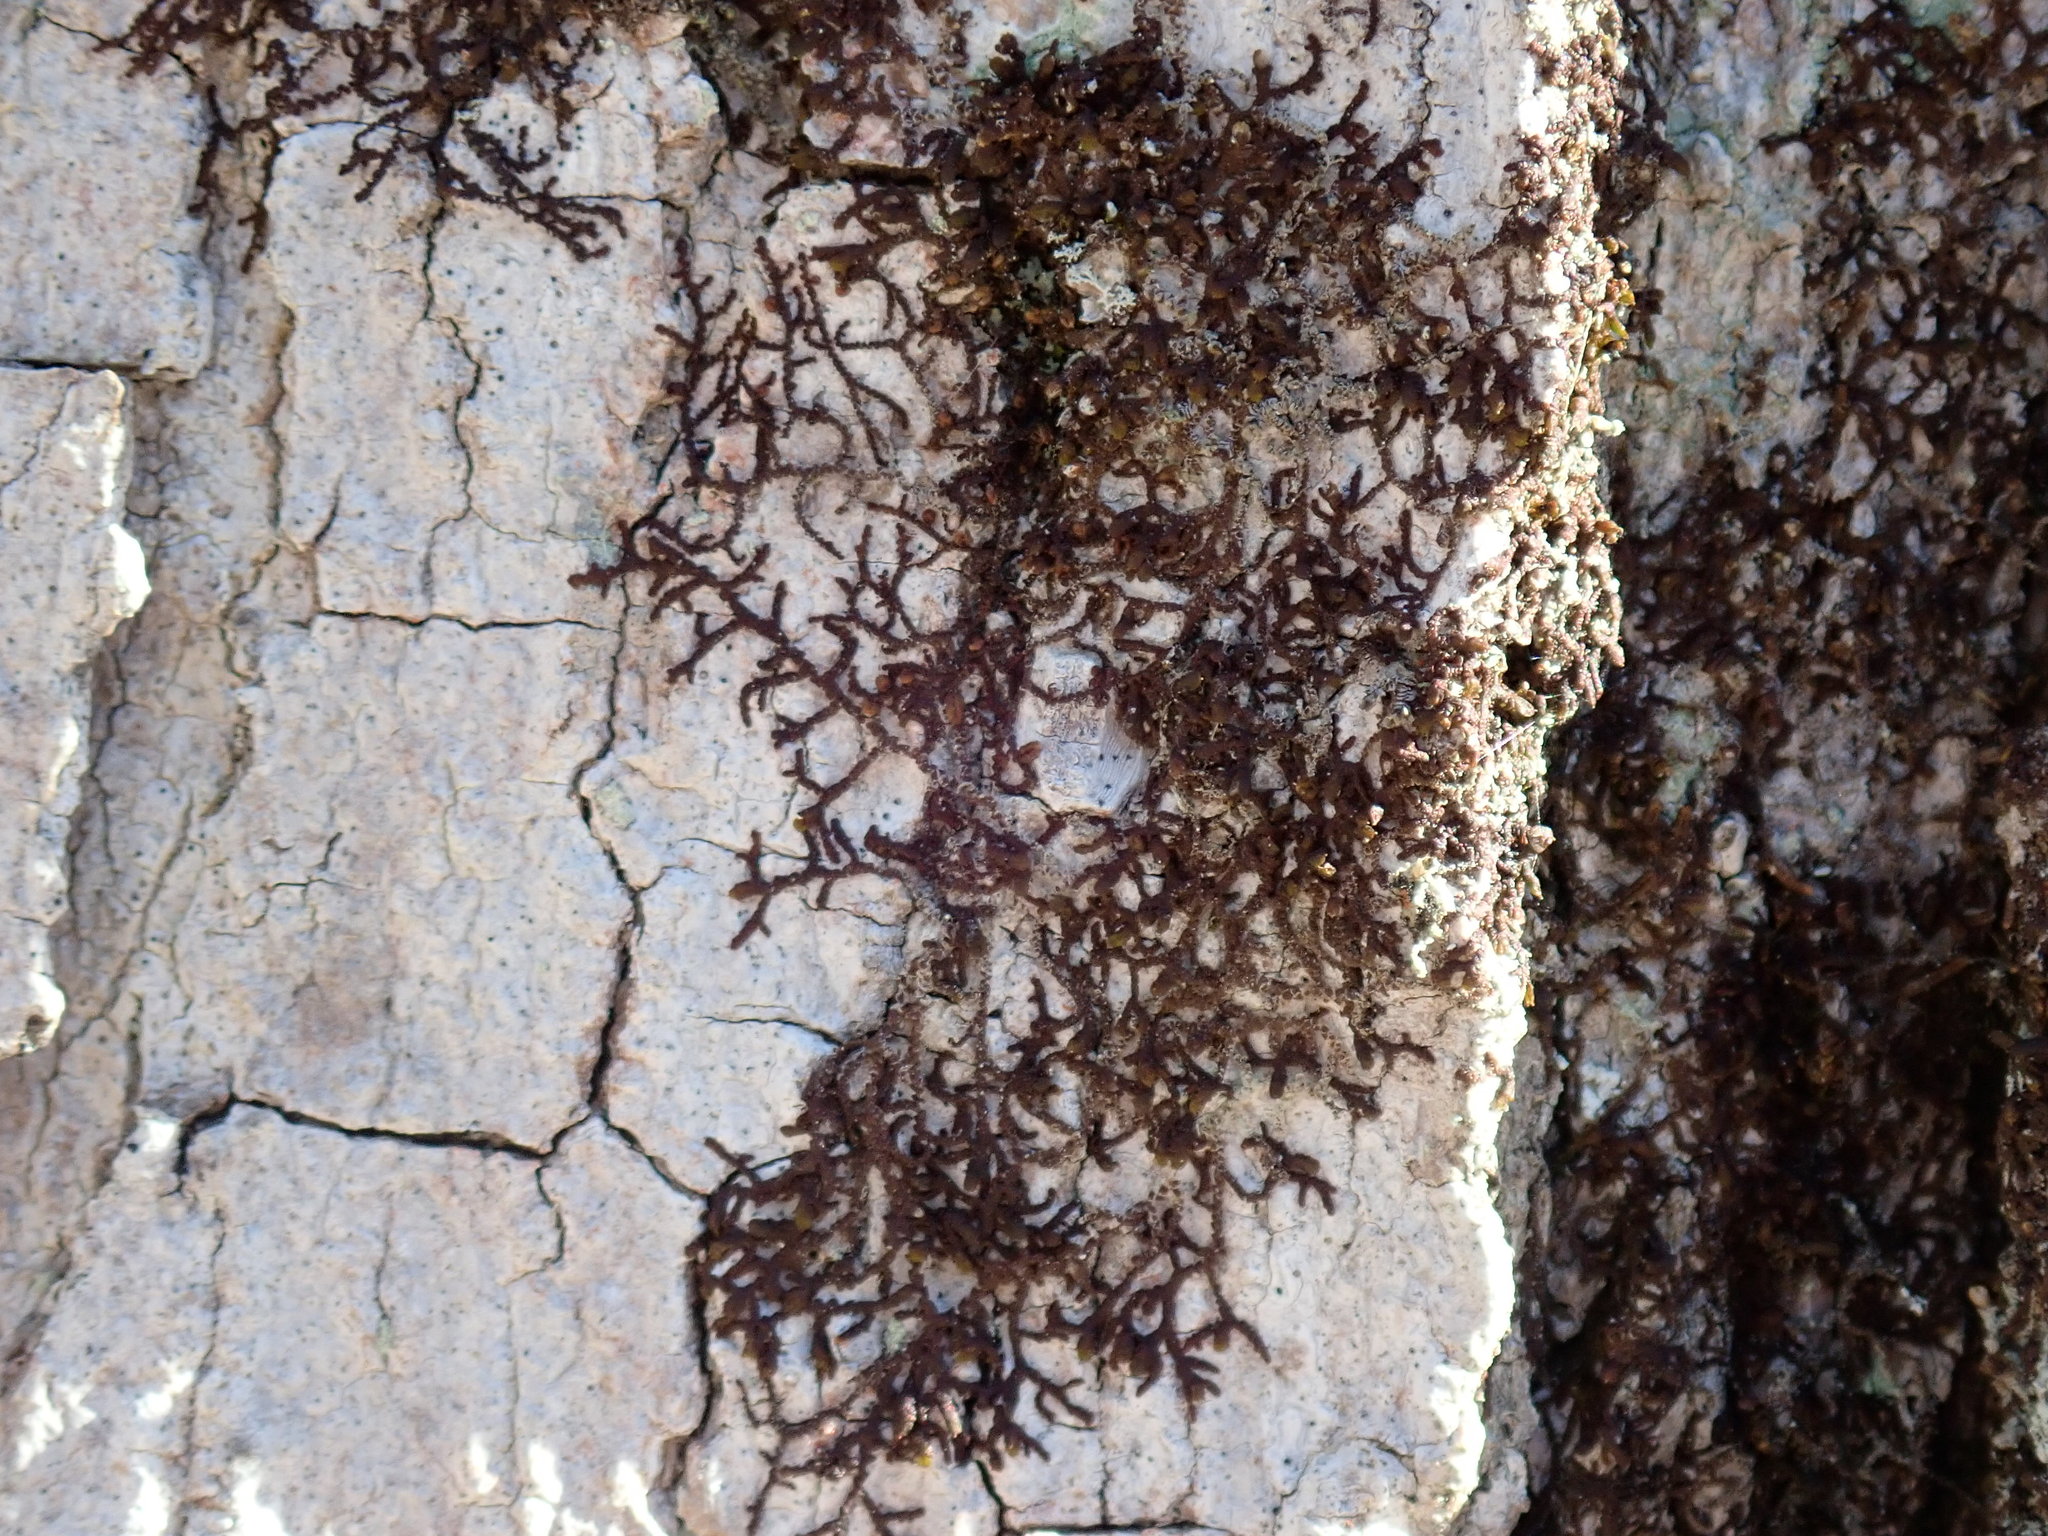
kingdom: Plantae
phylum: Marchantiophyta
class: Jungermanniopsida
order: Porellales
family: Frullaniaceae
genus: Frullania
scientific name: Frullania
